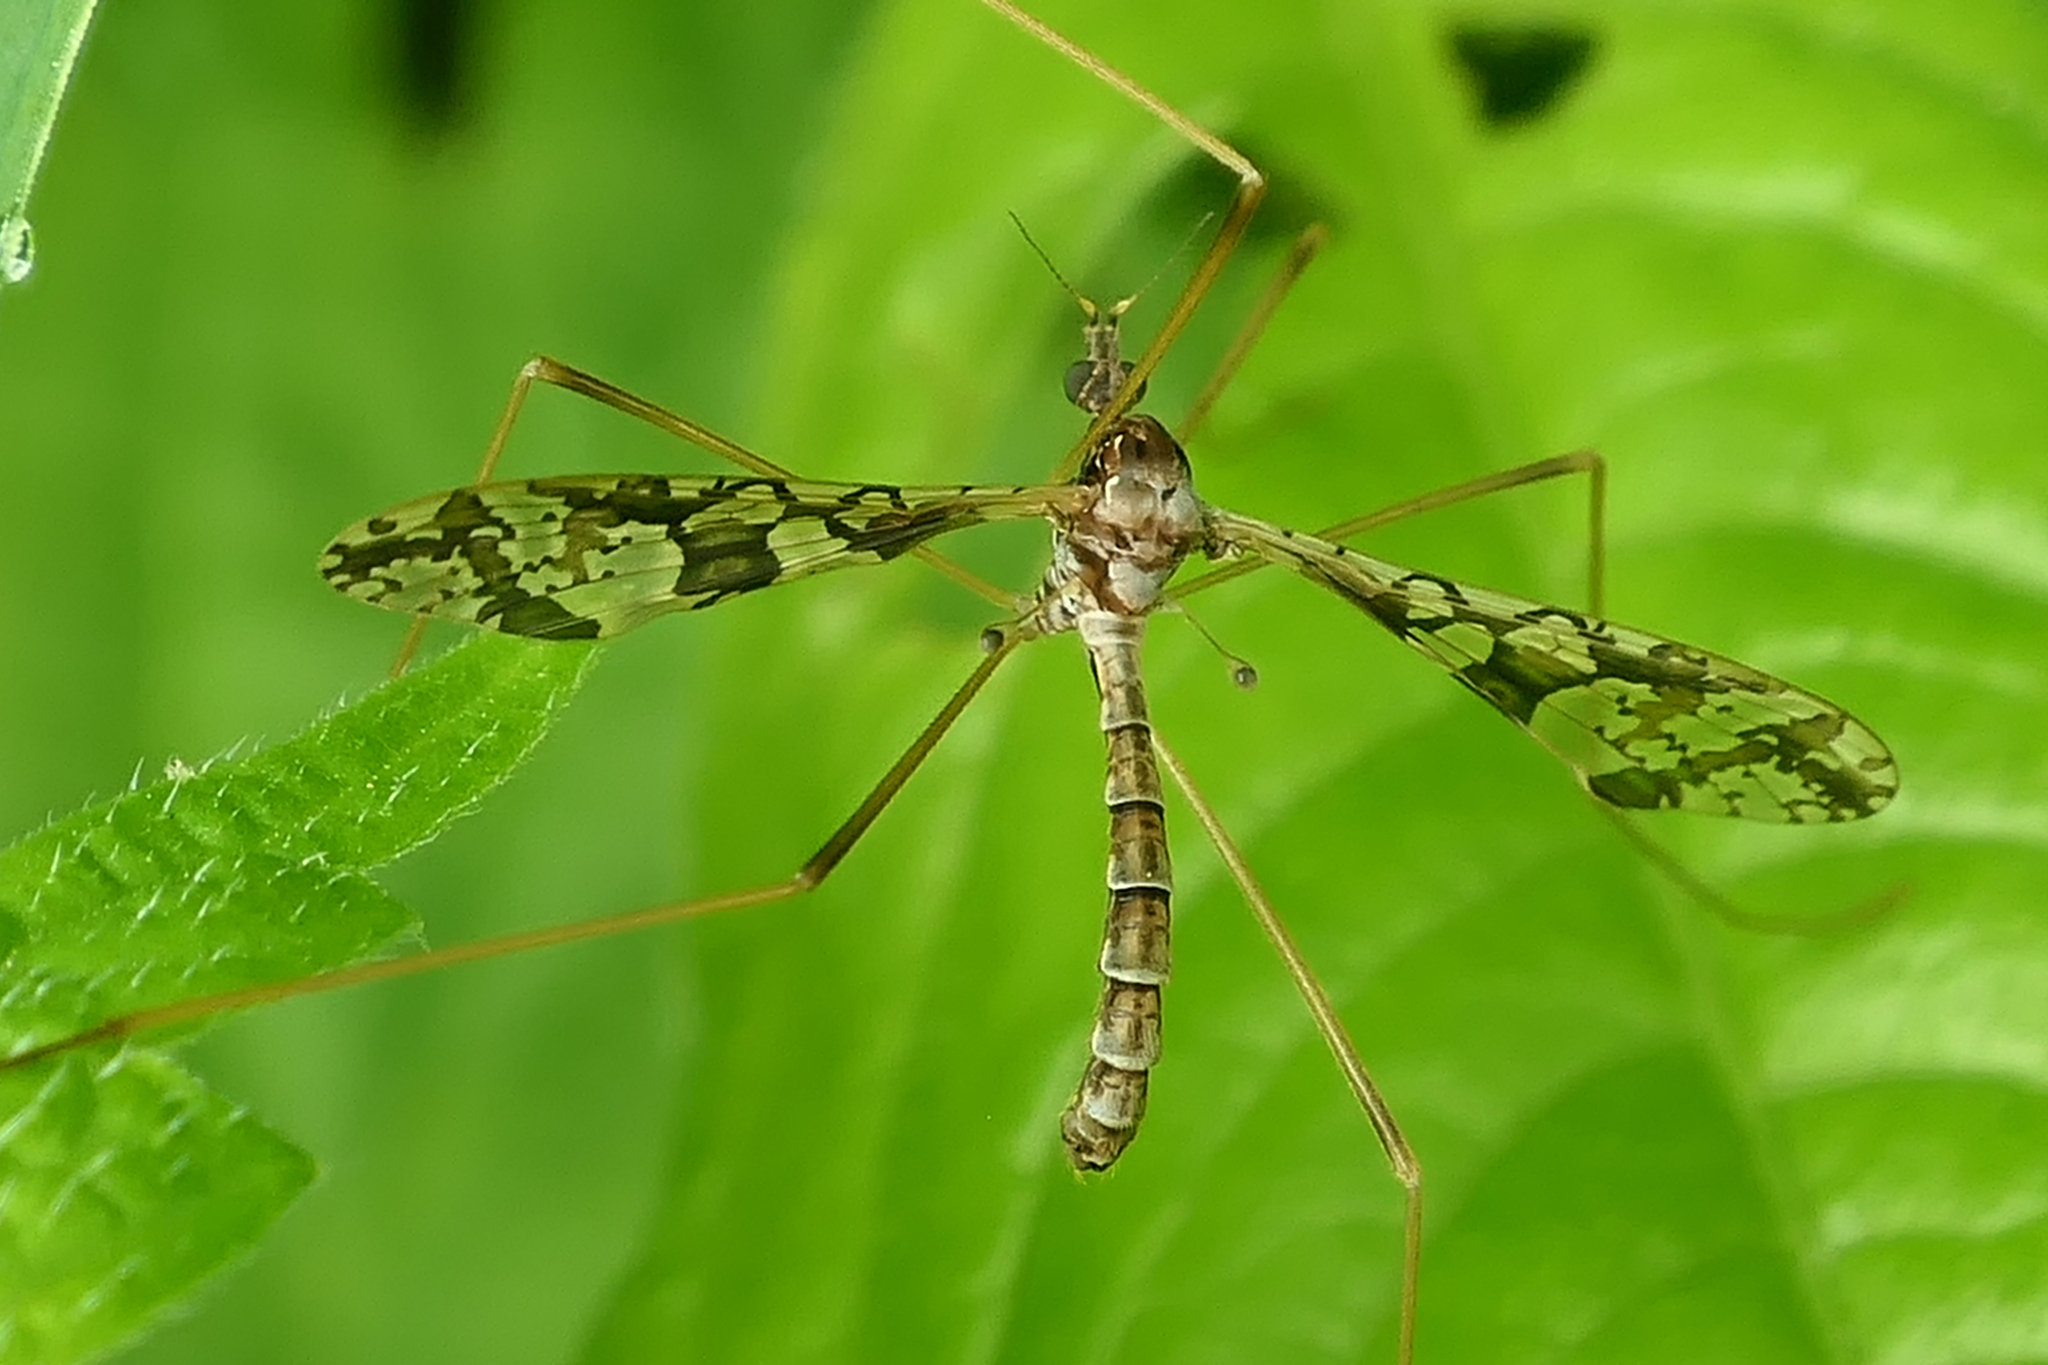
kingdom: Animalia
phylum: Arthropoda
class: Insecta
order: Diptera
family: Limoniidae
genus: Epiphragma
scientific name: Epiphragma solatrix
